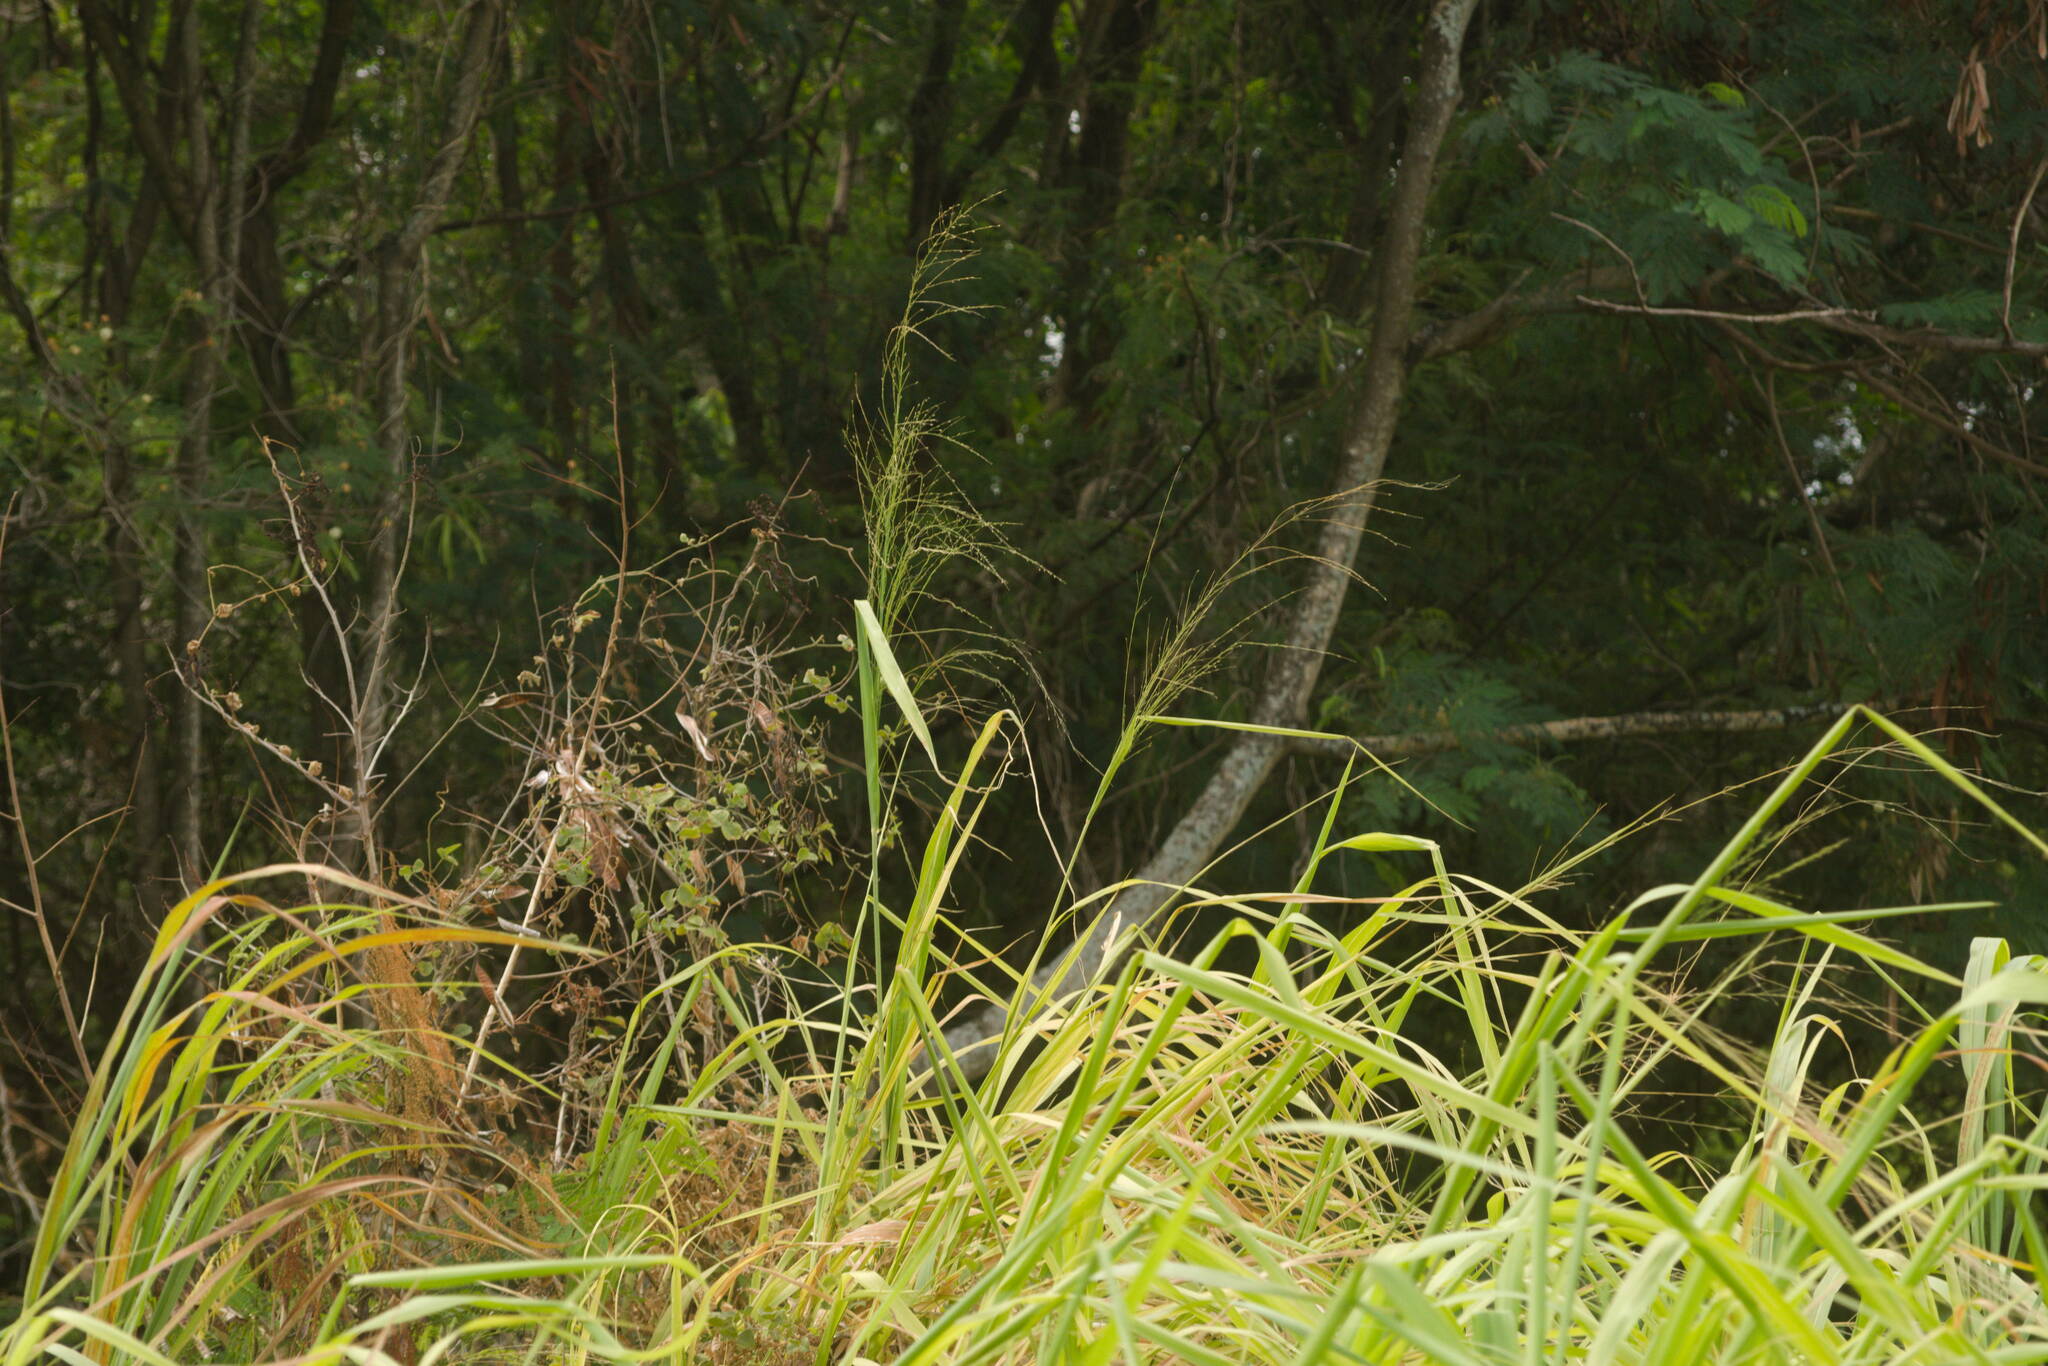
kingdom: Plantae
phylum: Tracheophyta
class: Liliopsida
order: Poales
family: Poaceae
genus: Megathyrsus
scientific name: Megathyrsus maximus
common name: Guineagrass
